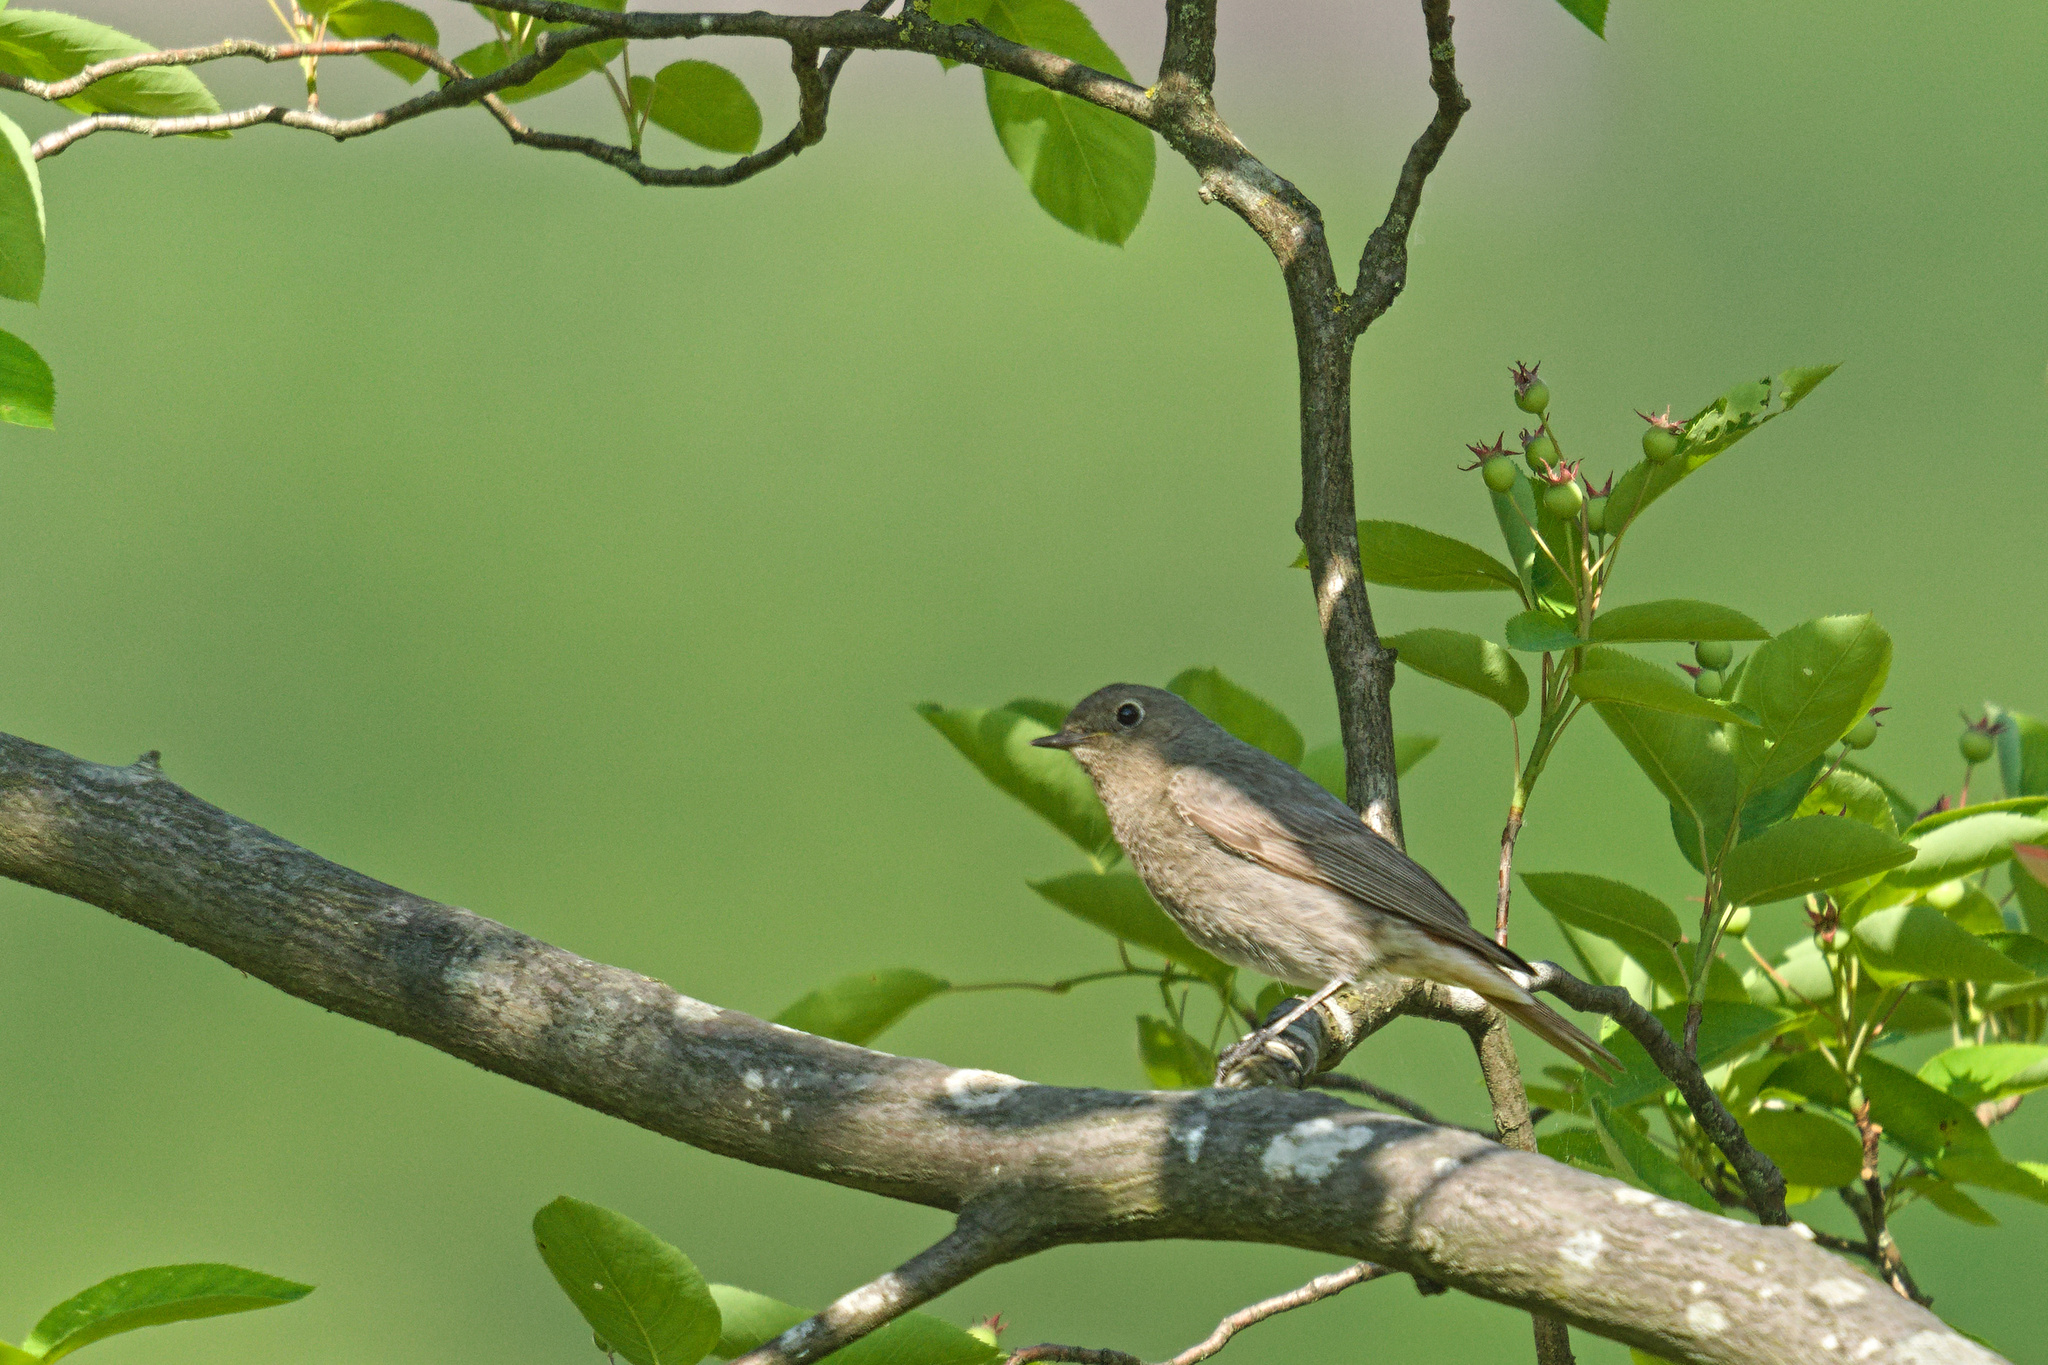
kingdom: Animalia
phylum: Chordata
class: Aves
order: Passeriformes
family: Muscicapidae
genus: Phoenicurus
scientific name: Phoenicurus ochruros
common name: Black redstart
